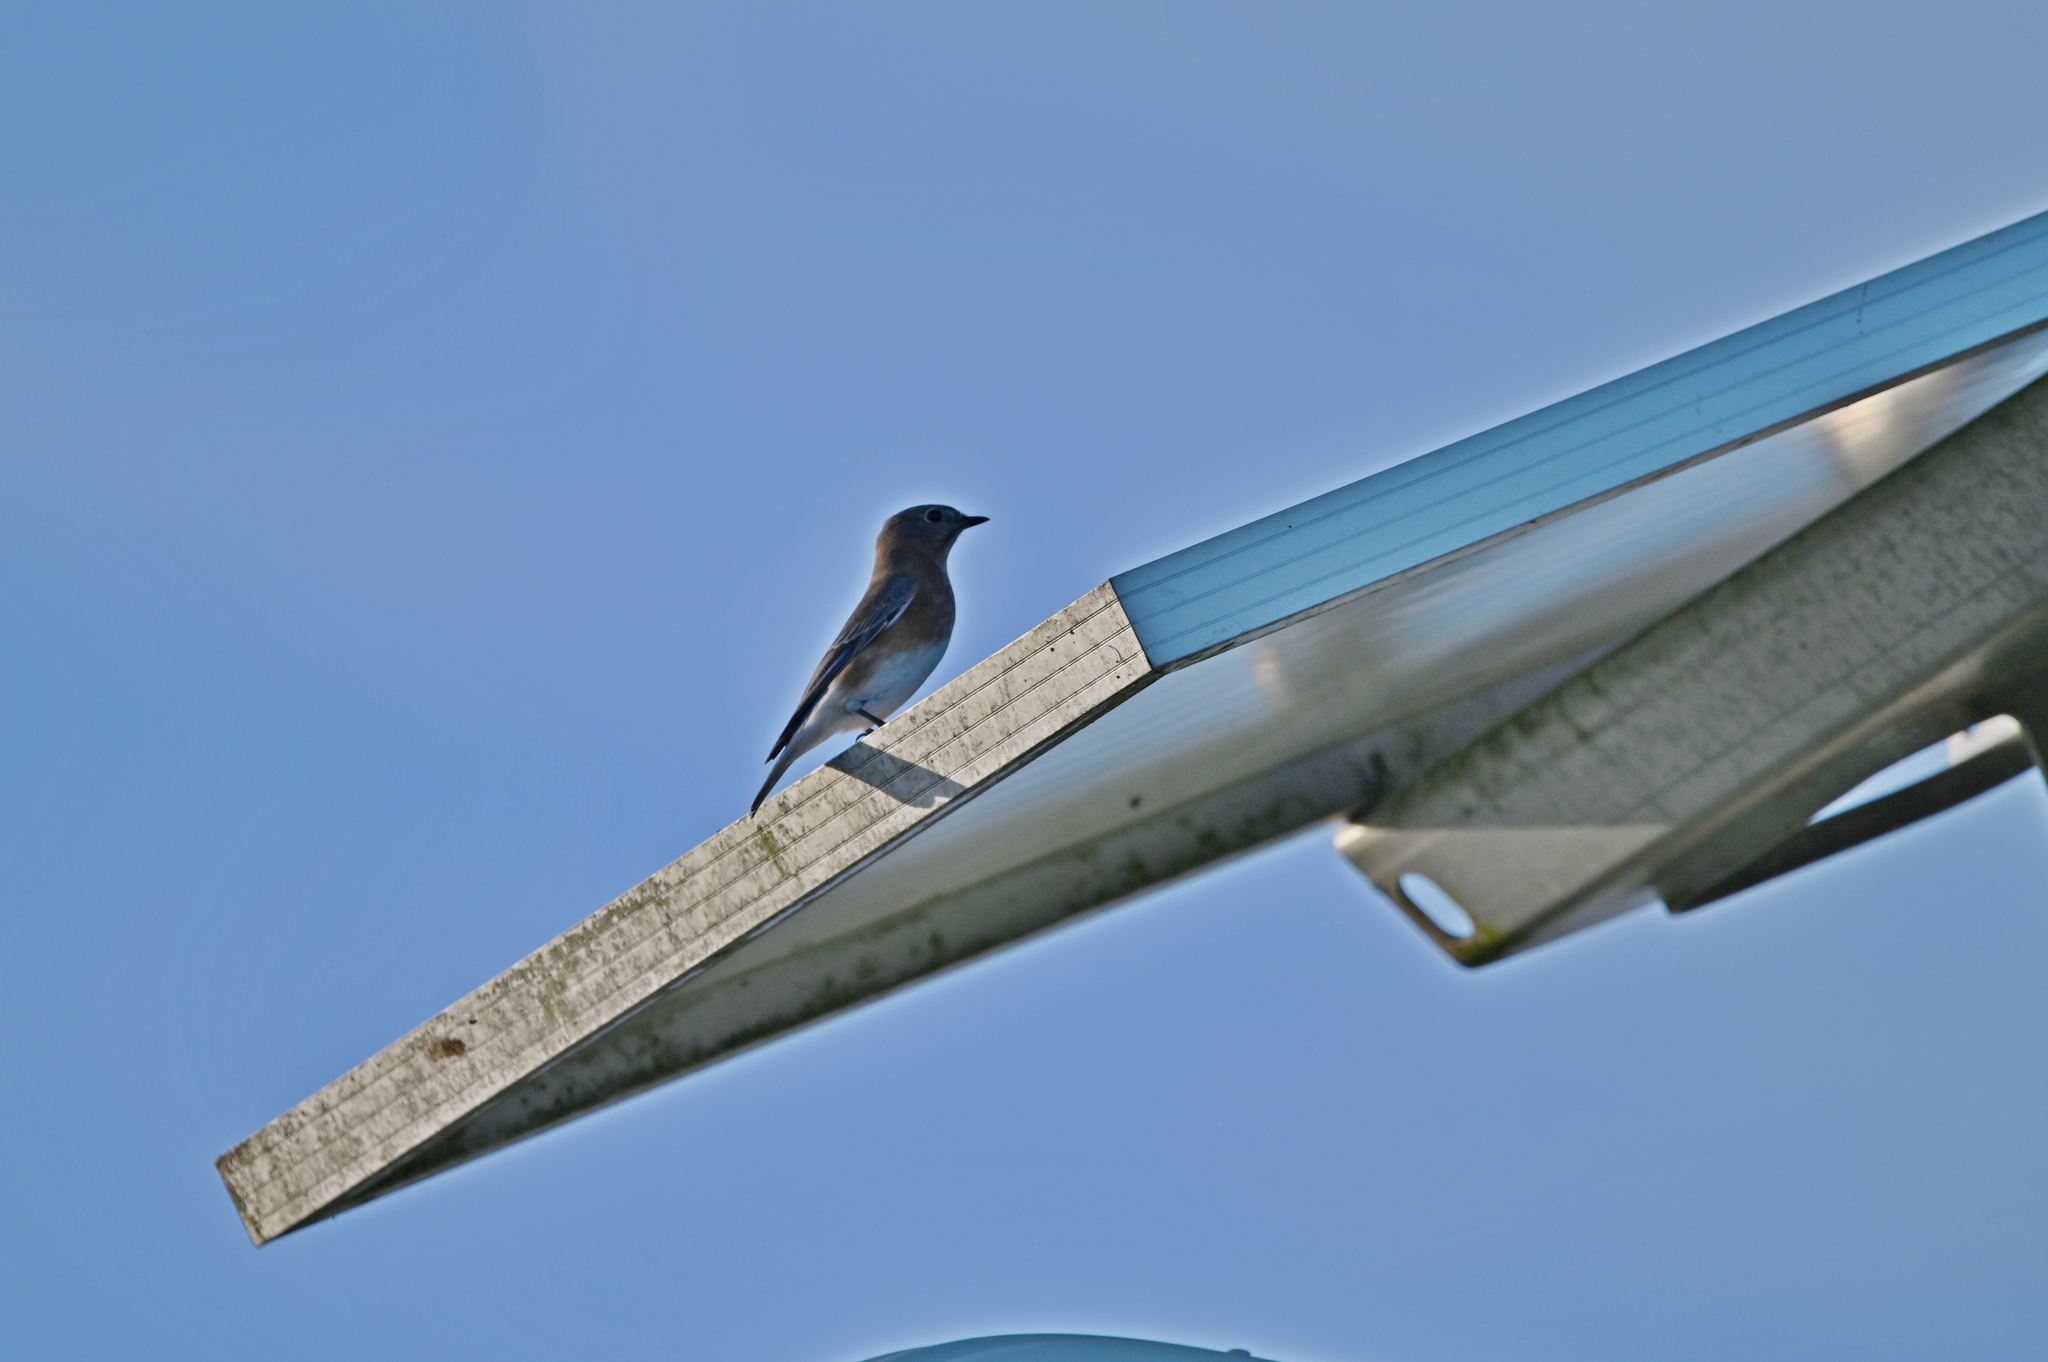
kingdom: Animalia
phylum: Chordata
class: Aves
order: Passeriformes
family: Turdidae
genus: Sialia
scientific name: Sialia sialis
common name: Eastern bluebird
